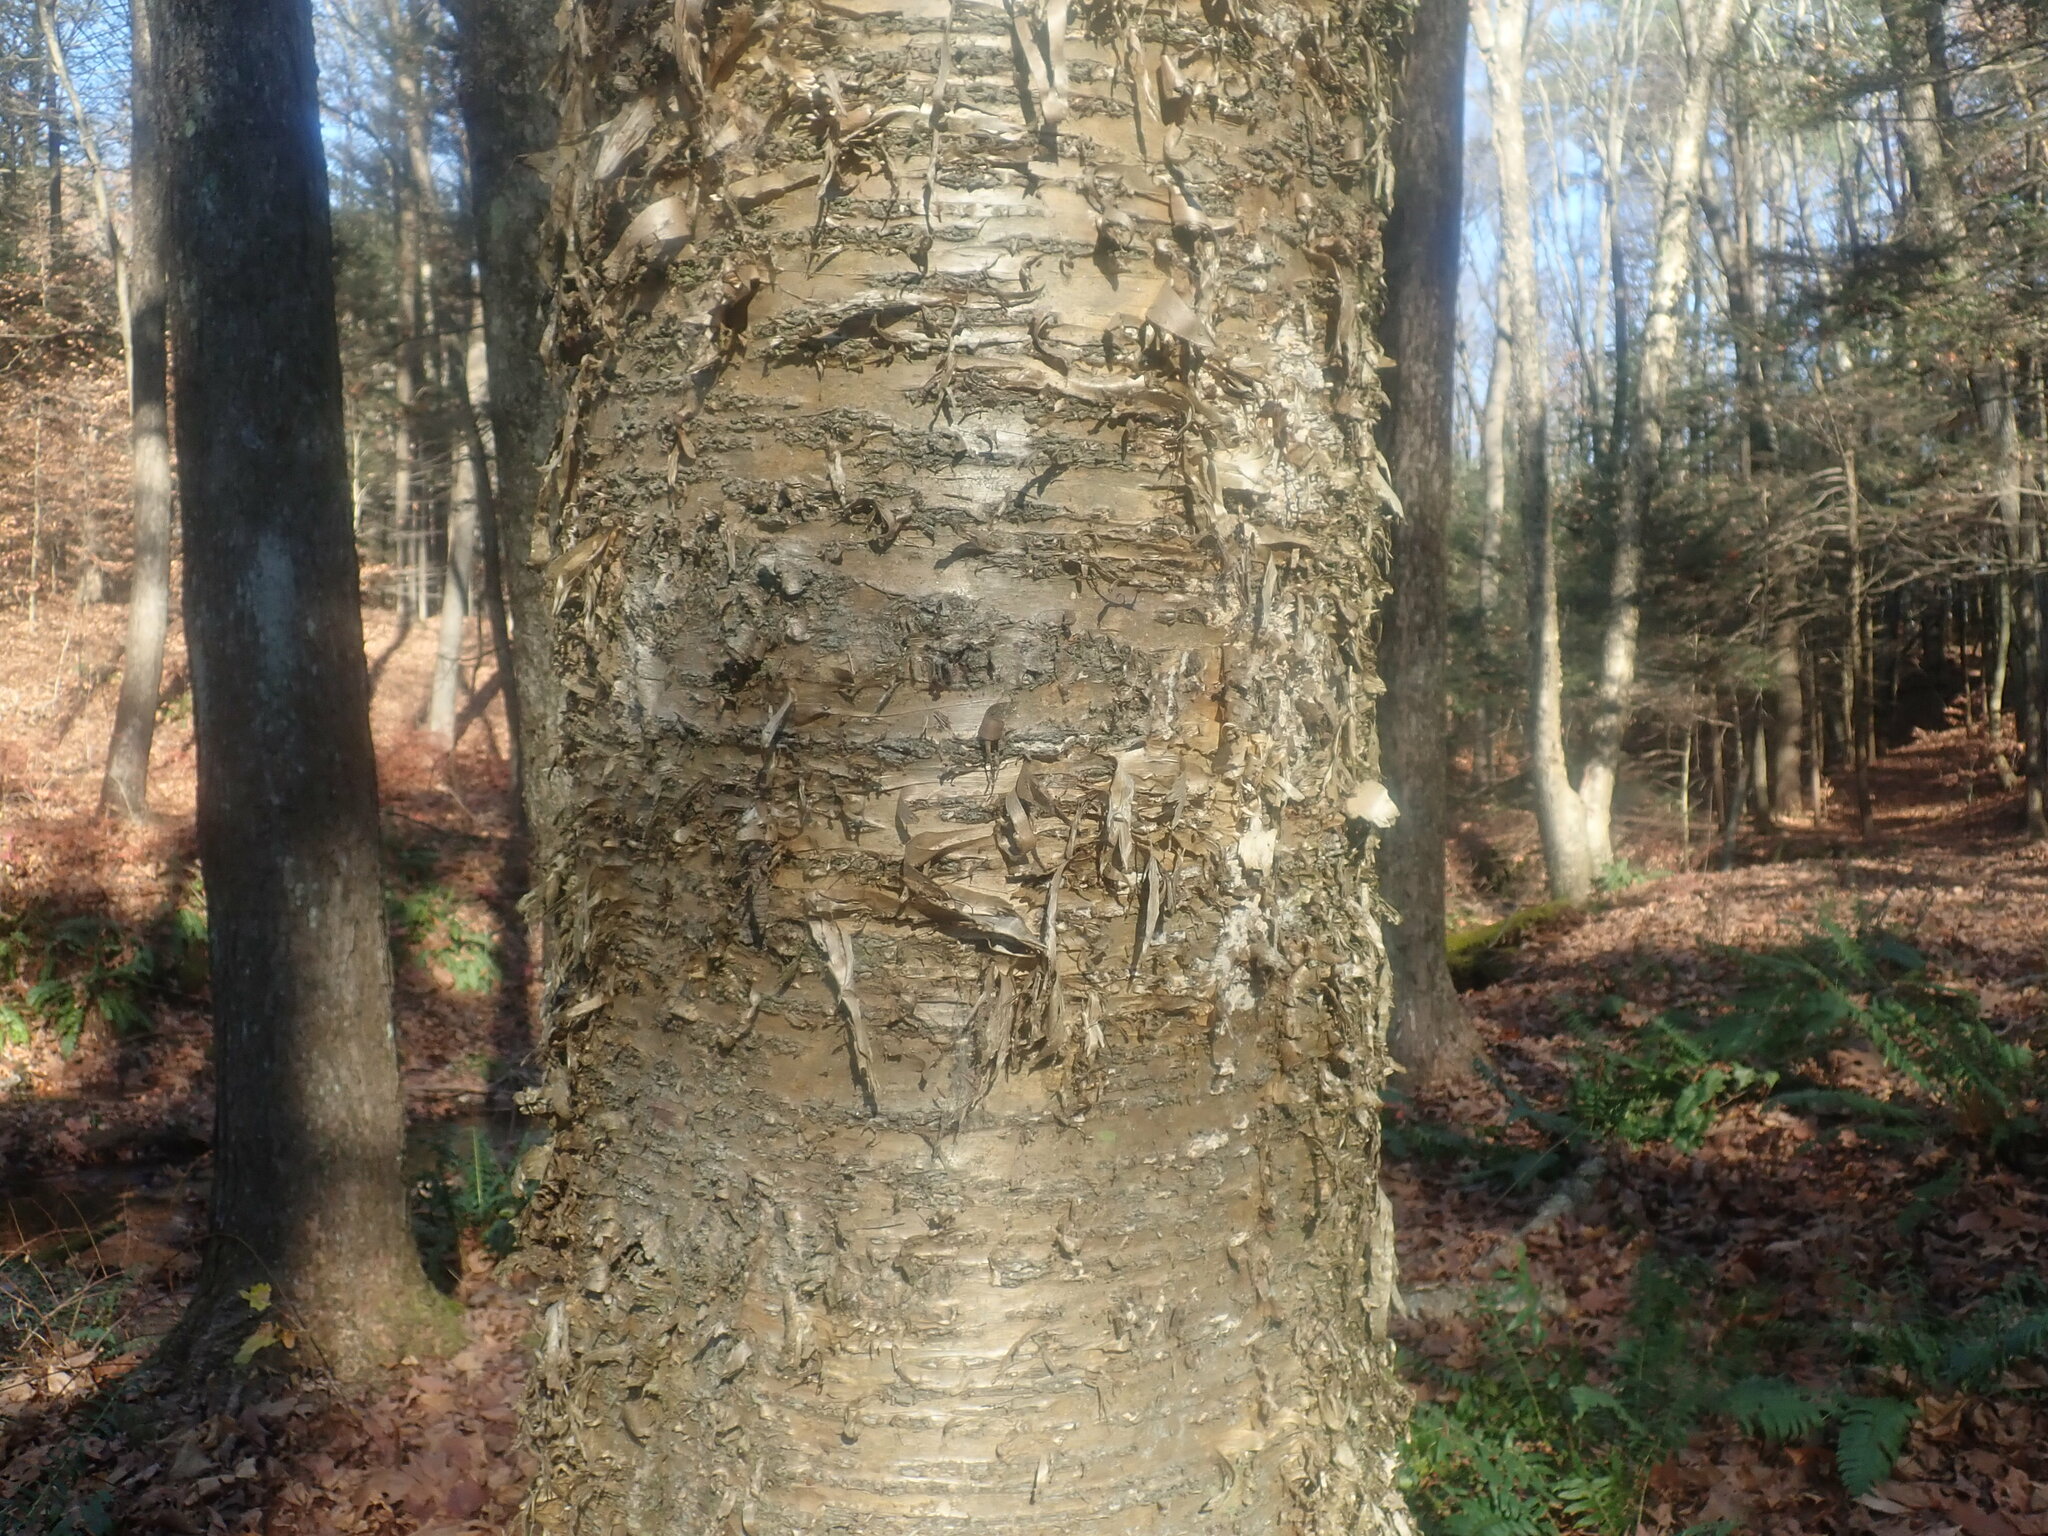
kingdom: Plantae
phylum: Tracheophyta
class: Magnoliopsida
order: Fagales
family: Betulaceae
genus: Betula
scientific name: Betula alleghaniensis
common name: Yellow birch
